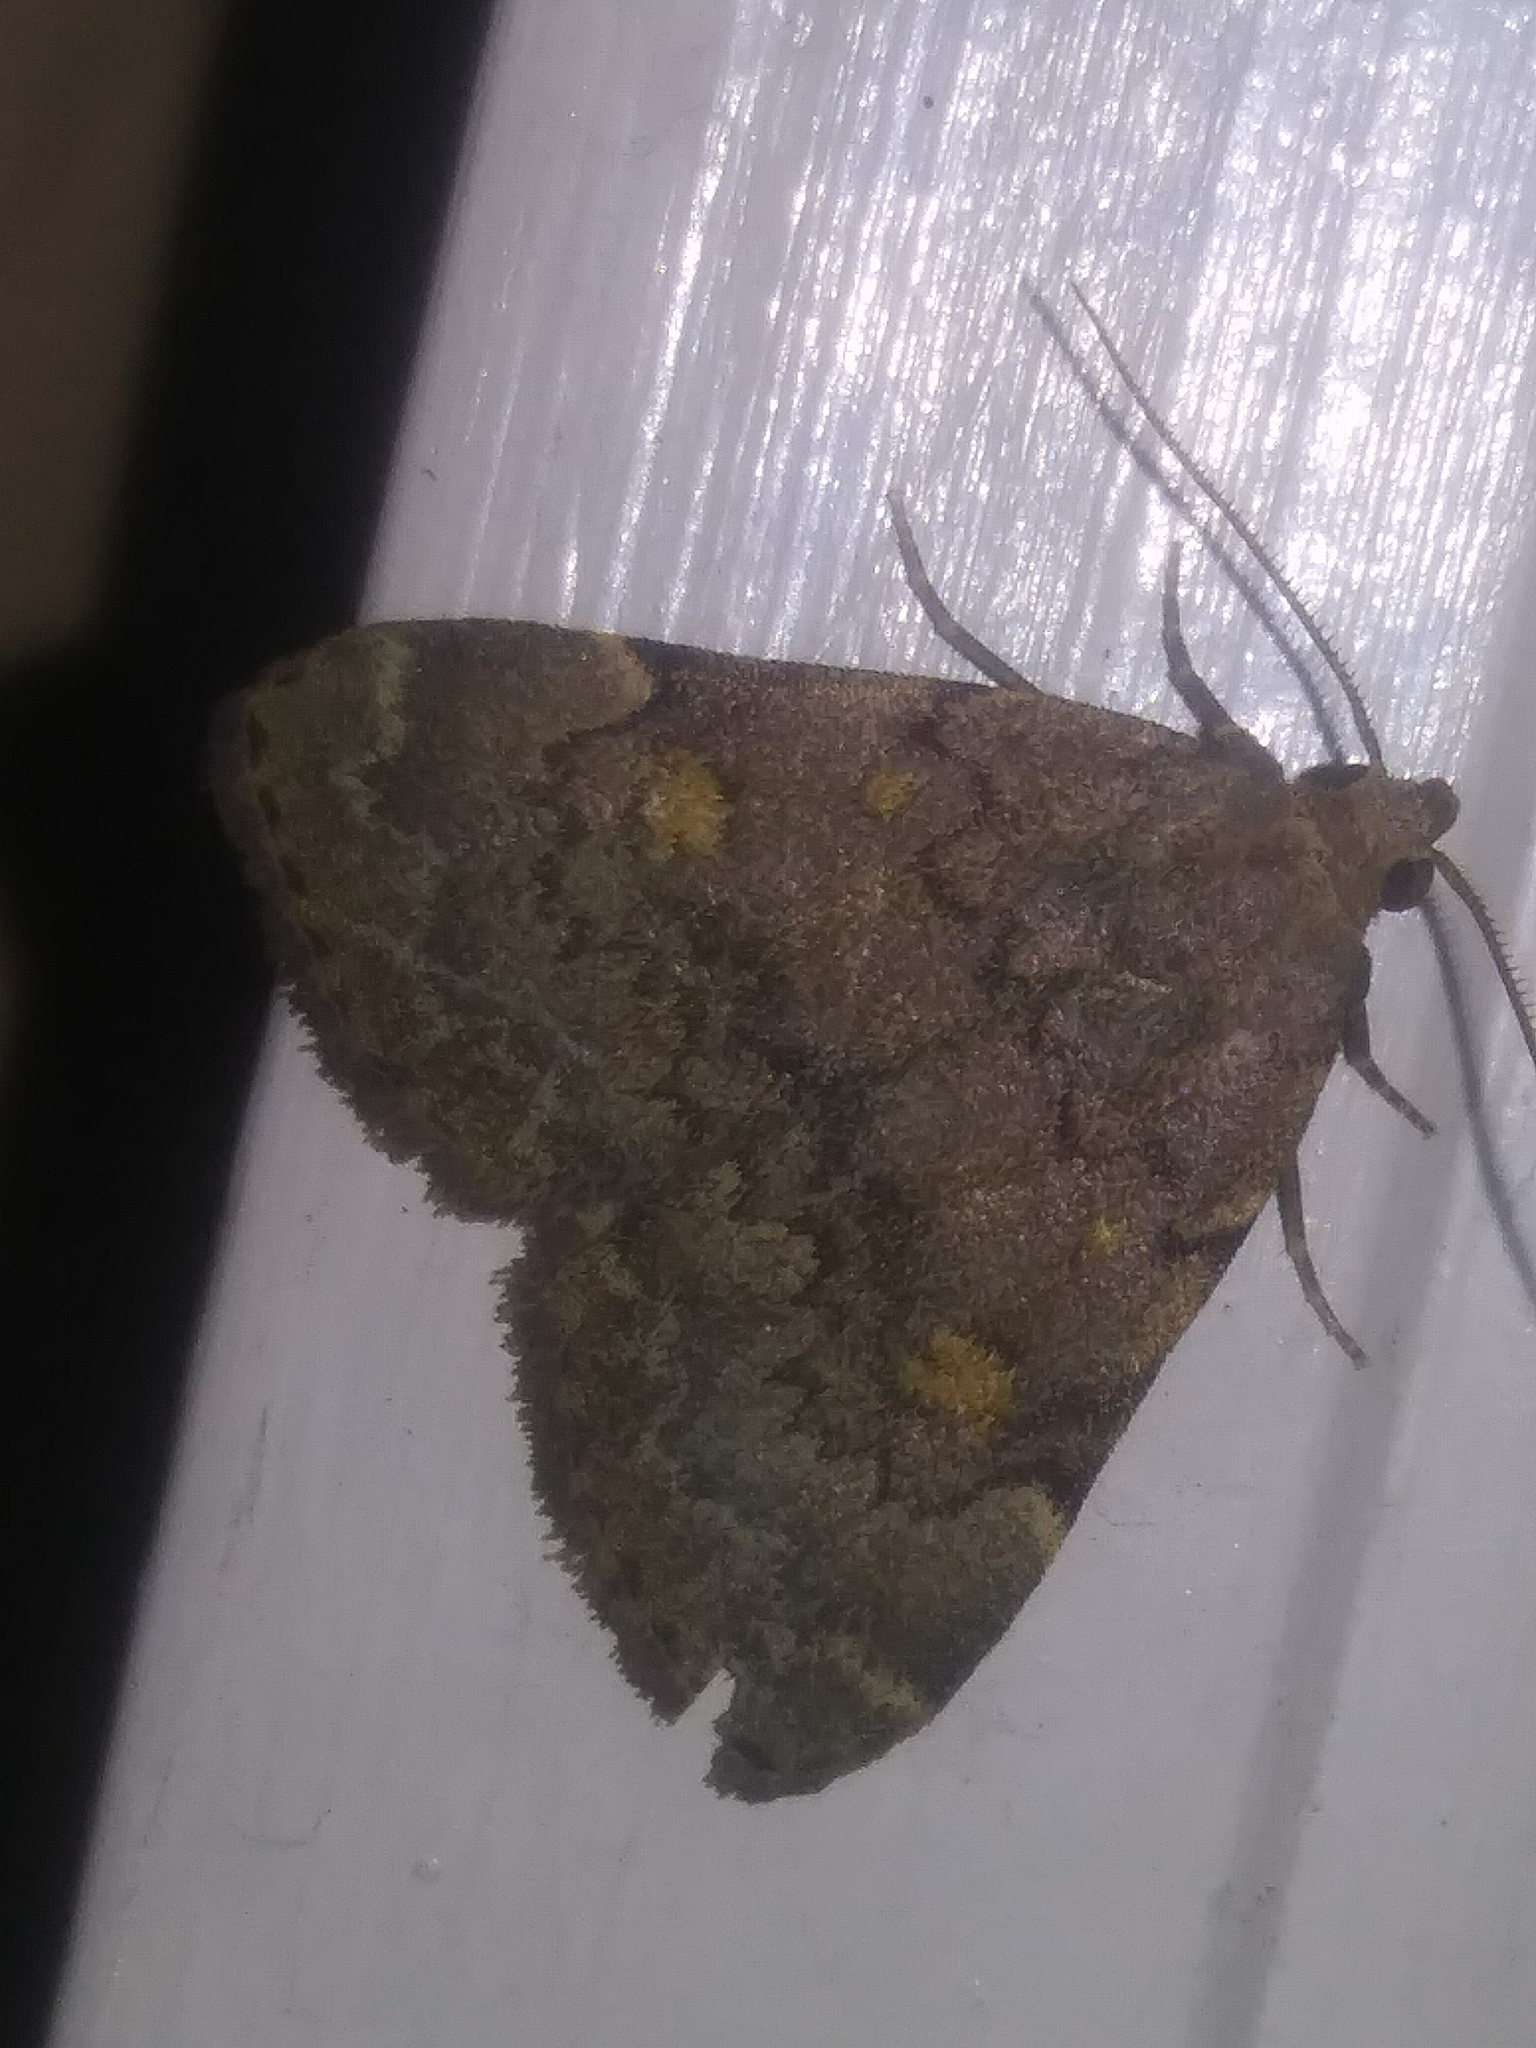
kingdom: Animalia
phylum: Arthropoda
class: Insecta
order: Lepidoptera
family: Erebidae
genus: Idia
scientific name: Idia aemula
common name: Common idia moth
